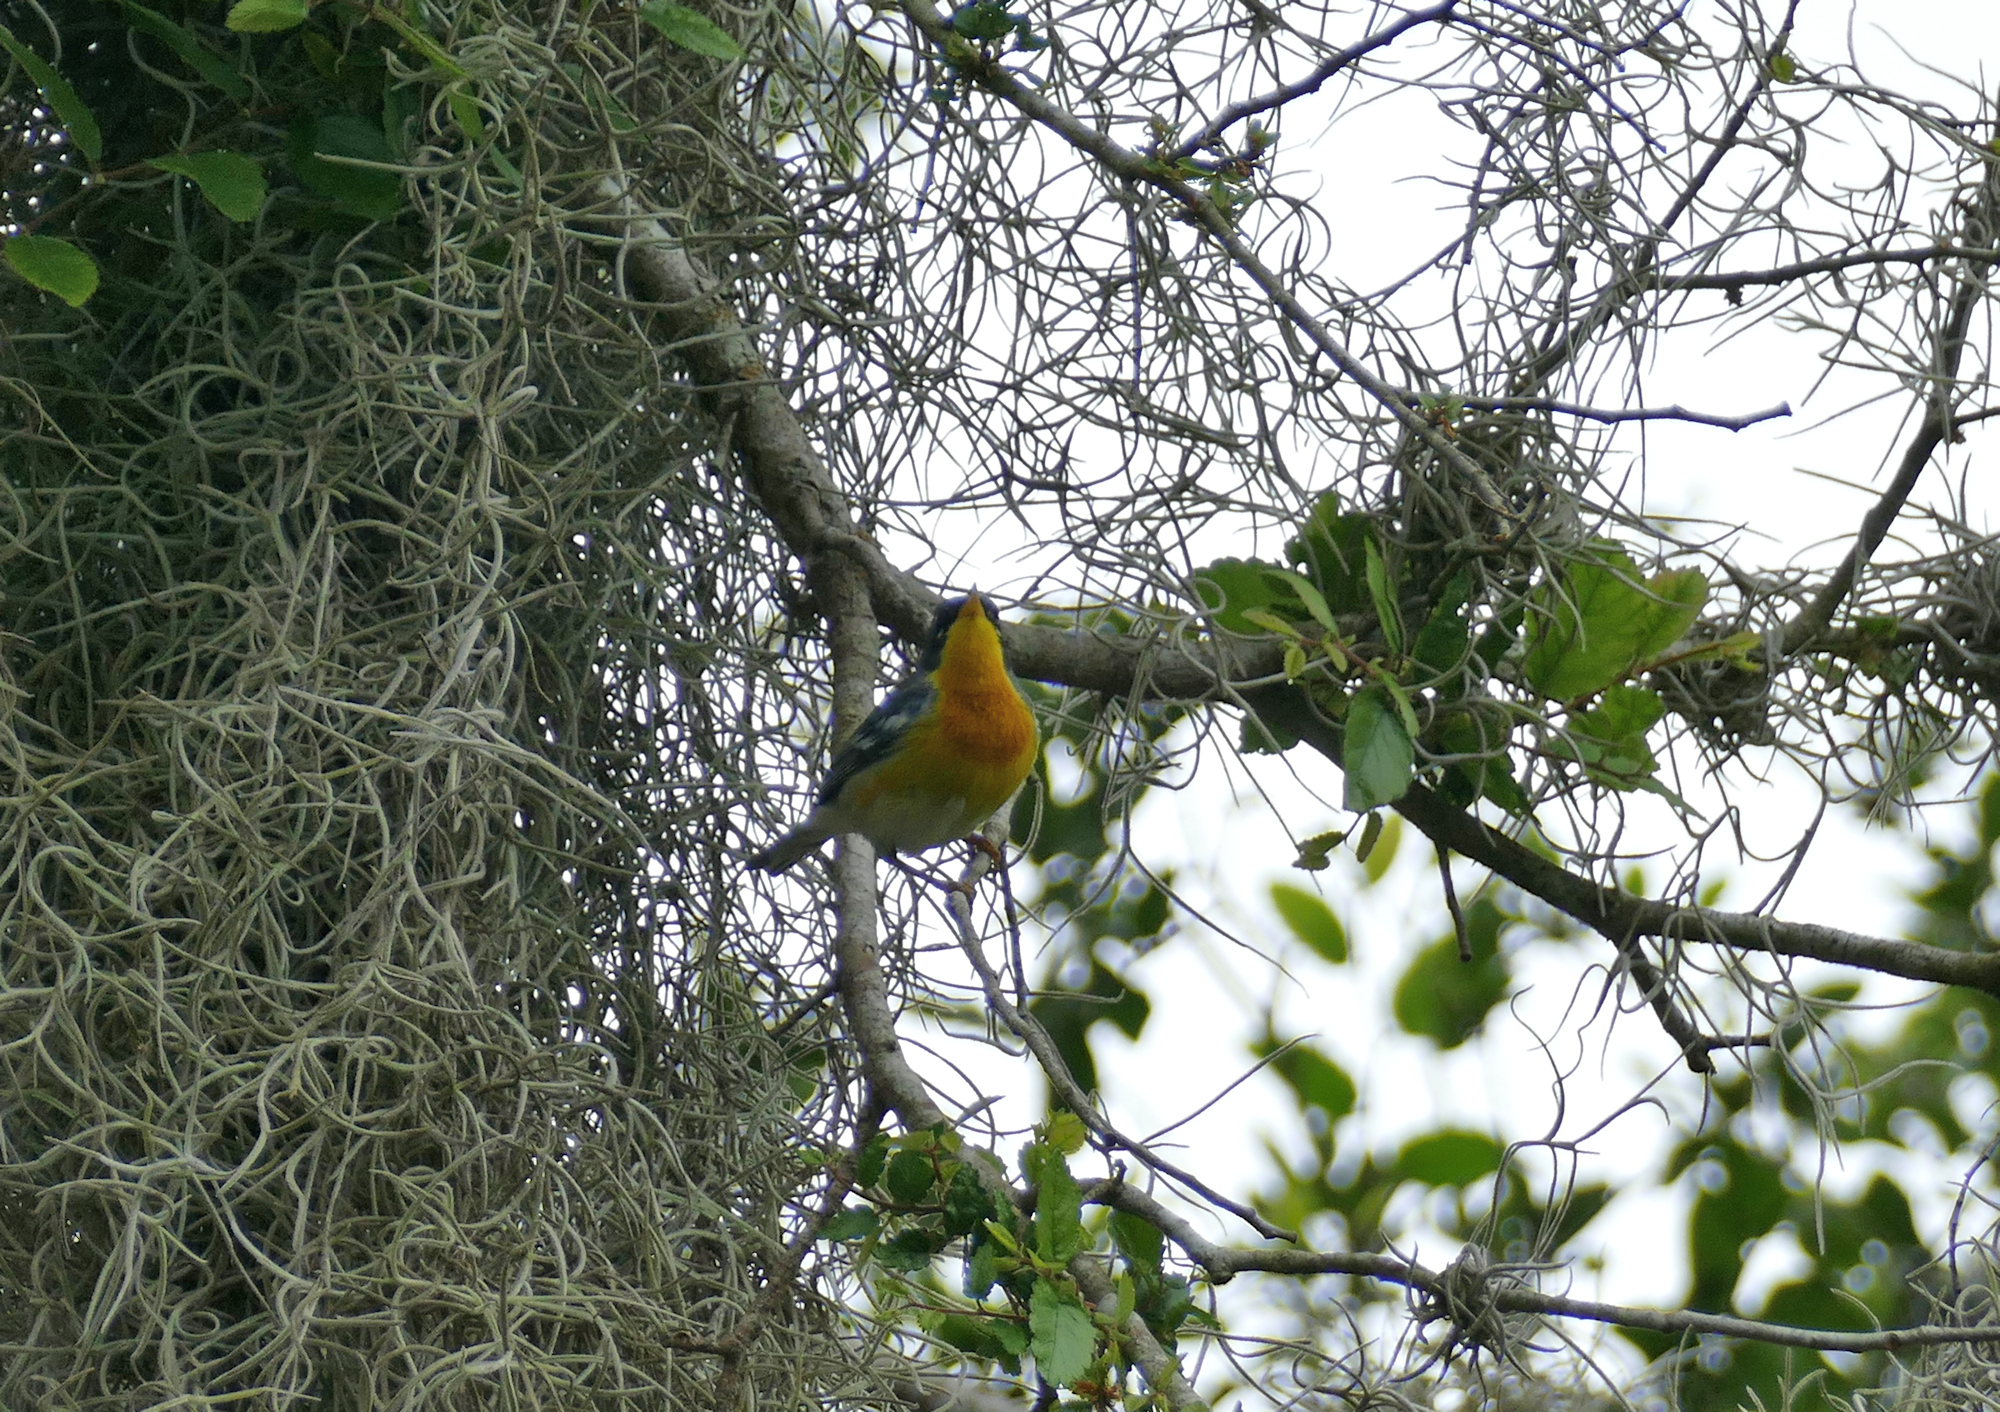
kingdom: Animalia
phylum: Chordata
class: Aves
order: Passeriformes
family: Parulidae
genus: Setophaga
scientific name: Setophaga pitiayumi
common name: Tropical parula
